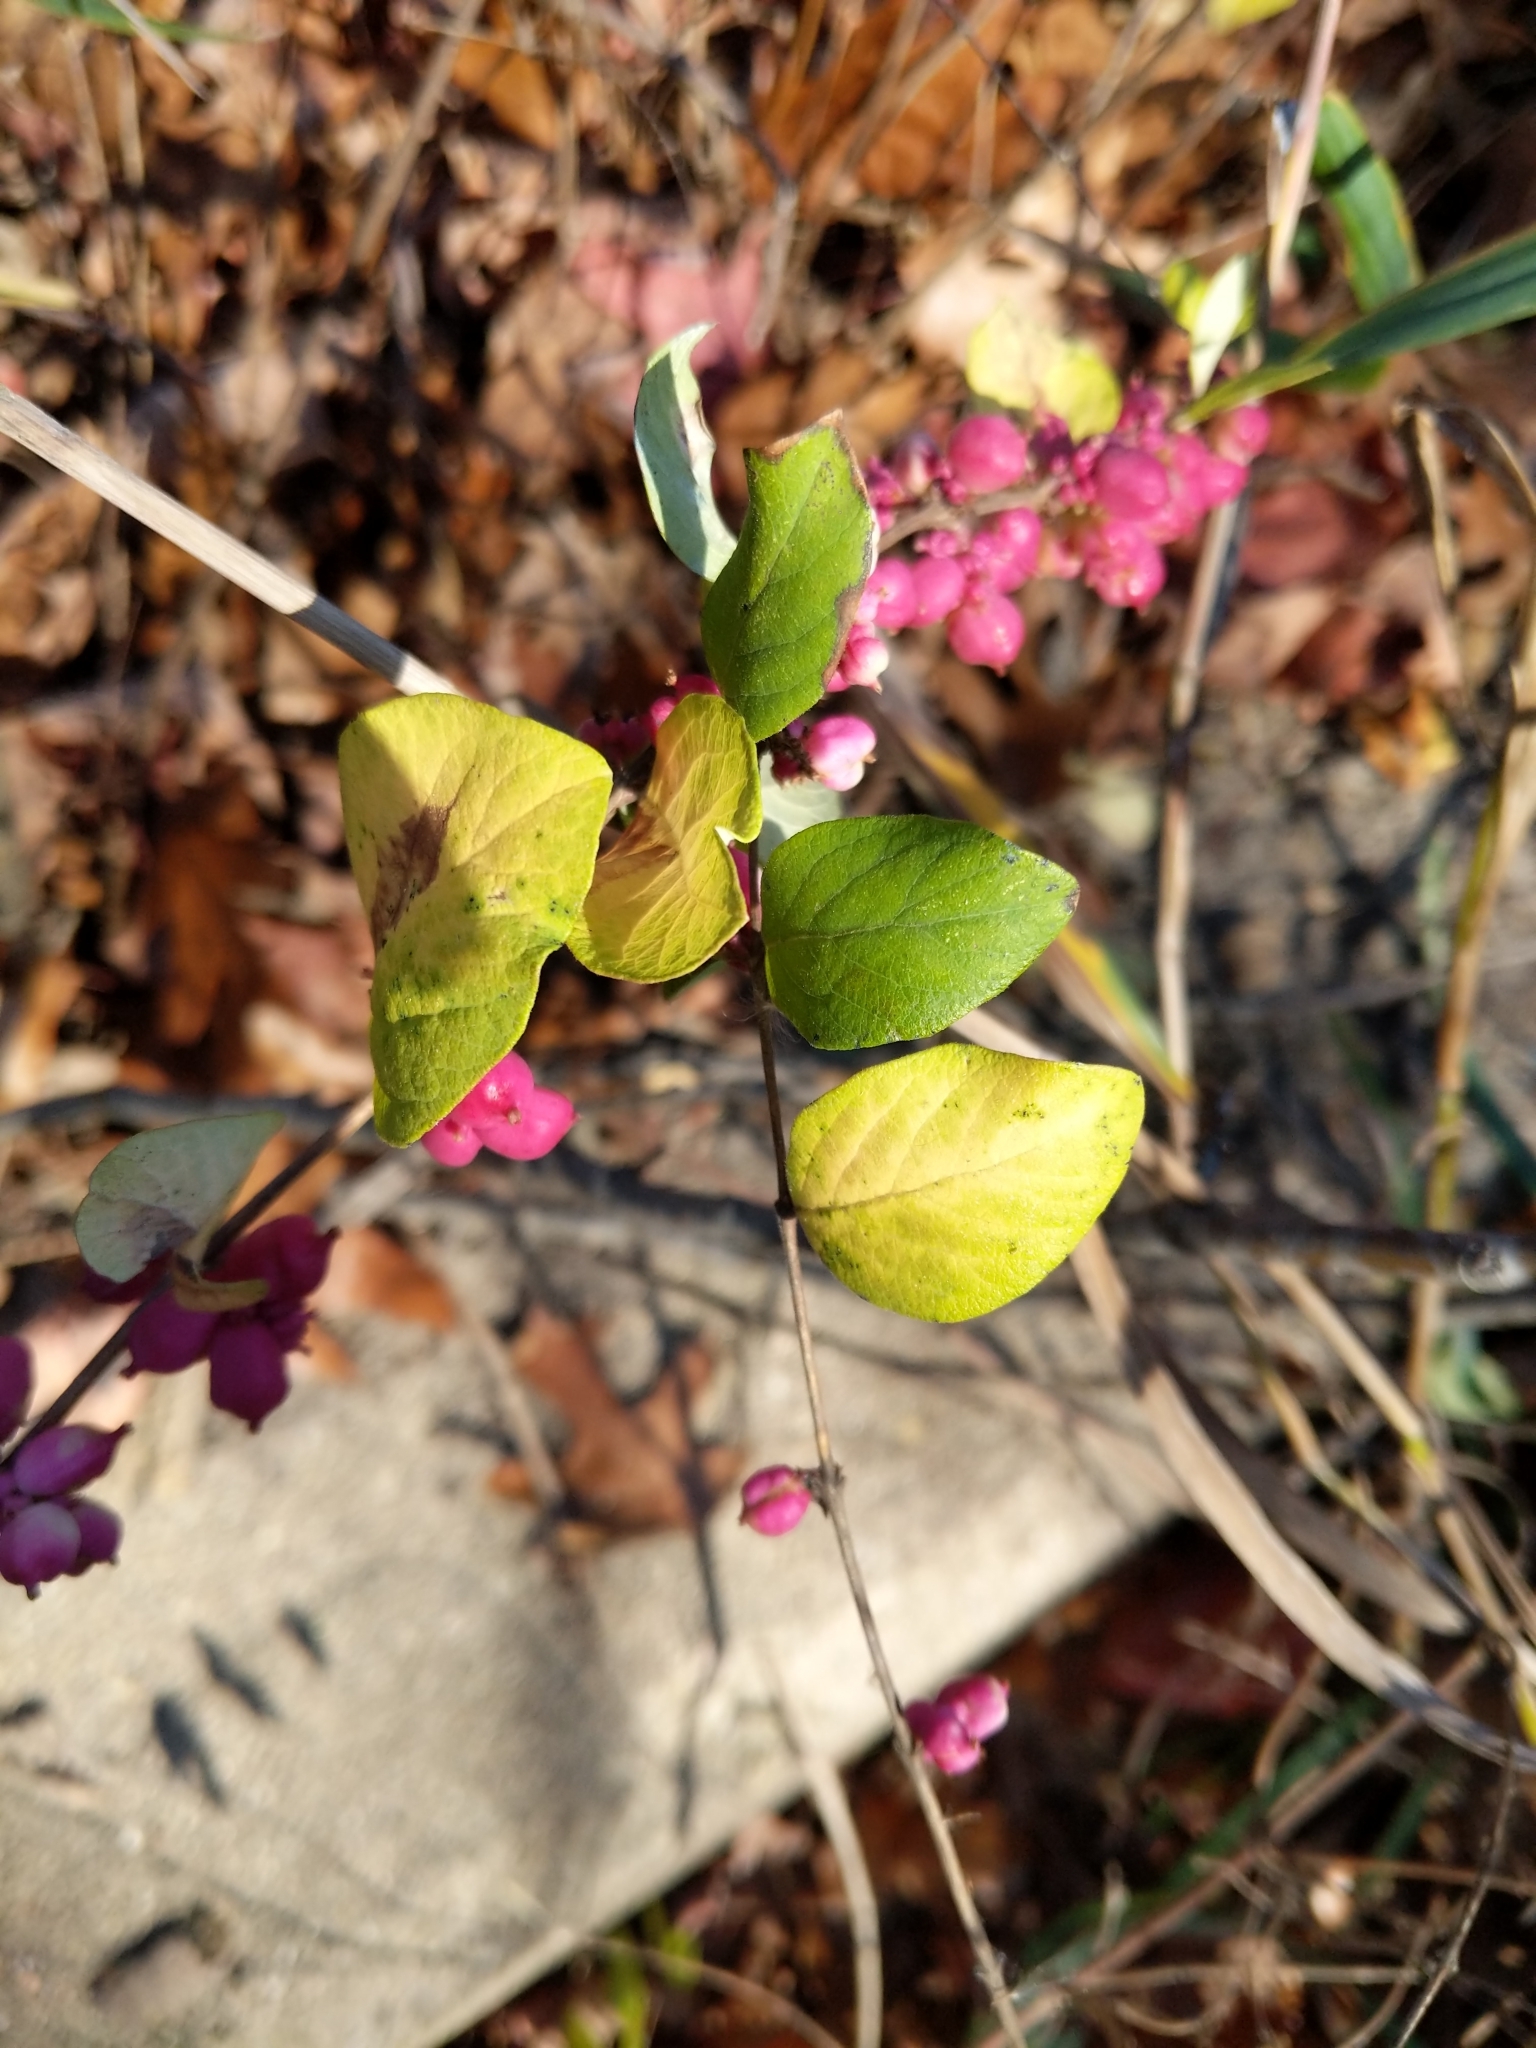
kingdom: Plantae
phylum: Tracheophyta
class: Magnoliopsida
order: Dipsacales
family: Caprifoliaceae
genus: Symphoricarpos
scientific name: Symphoricarpos orbiculatus
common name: Coralberry
